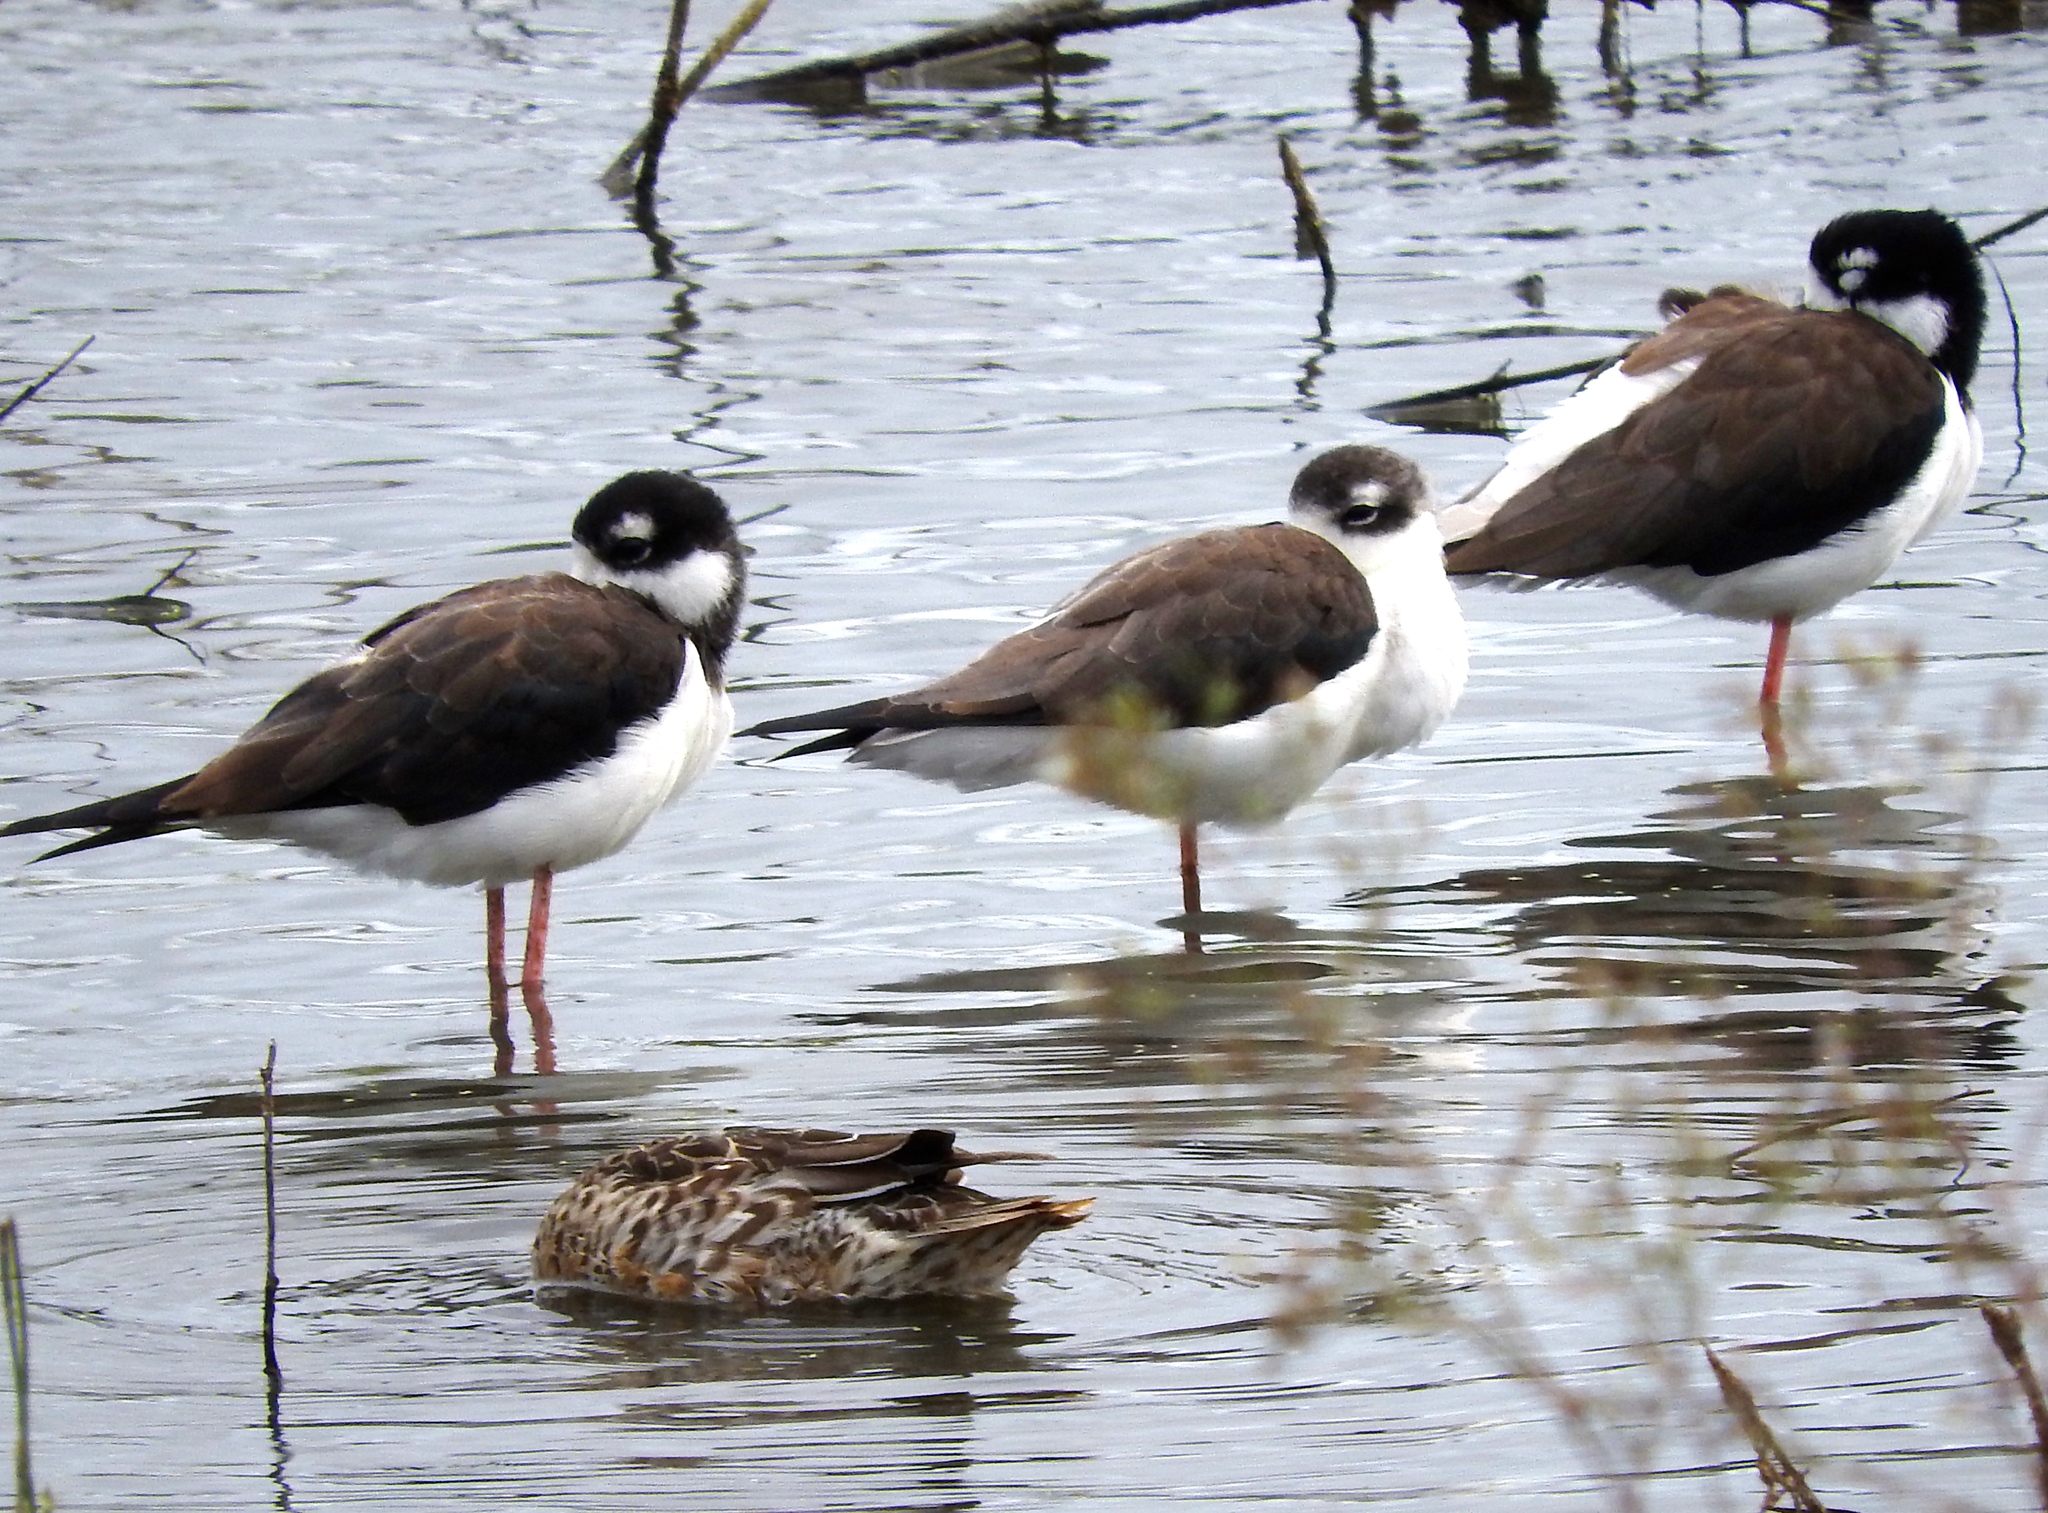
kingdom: Animalia
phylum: Chordata
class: Aves
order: Charadriiformes
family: Recurvirostridae
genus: Himantopus
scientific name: Himantopus mexicanus
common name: Black-necked stilt
